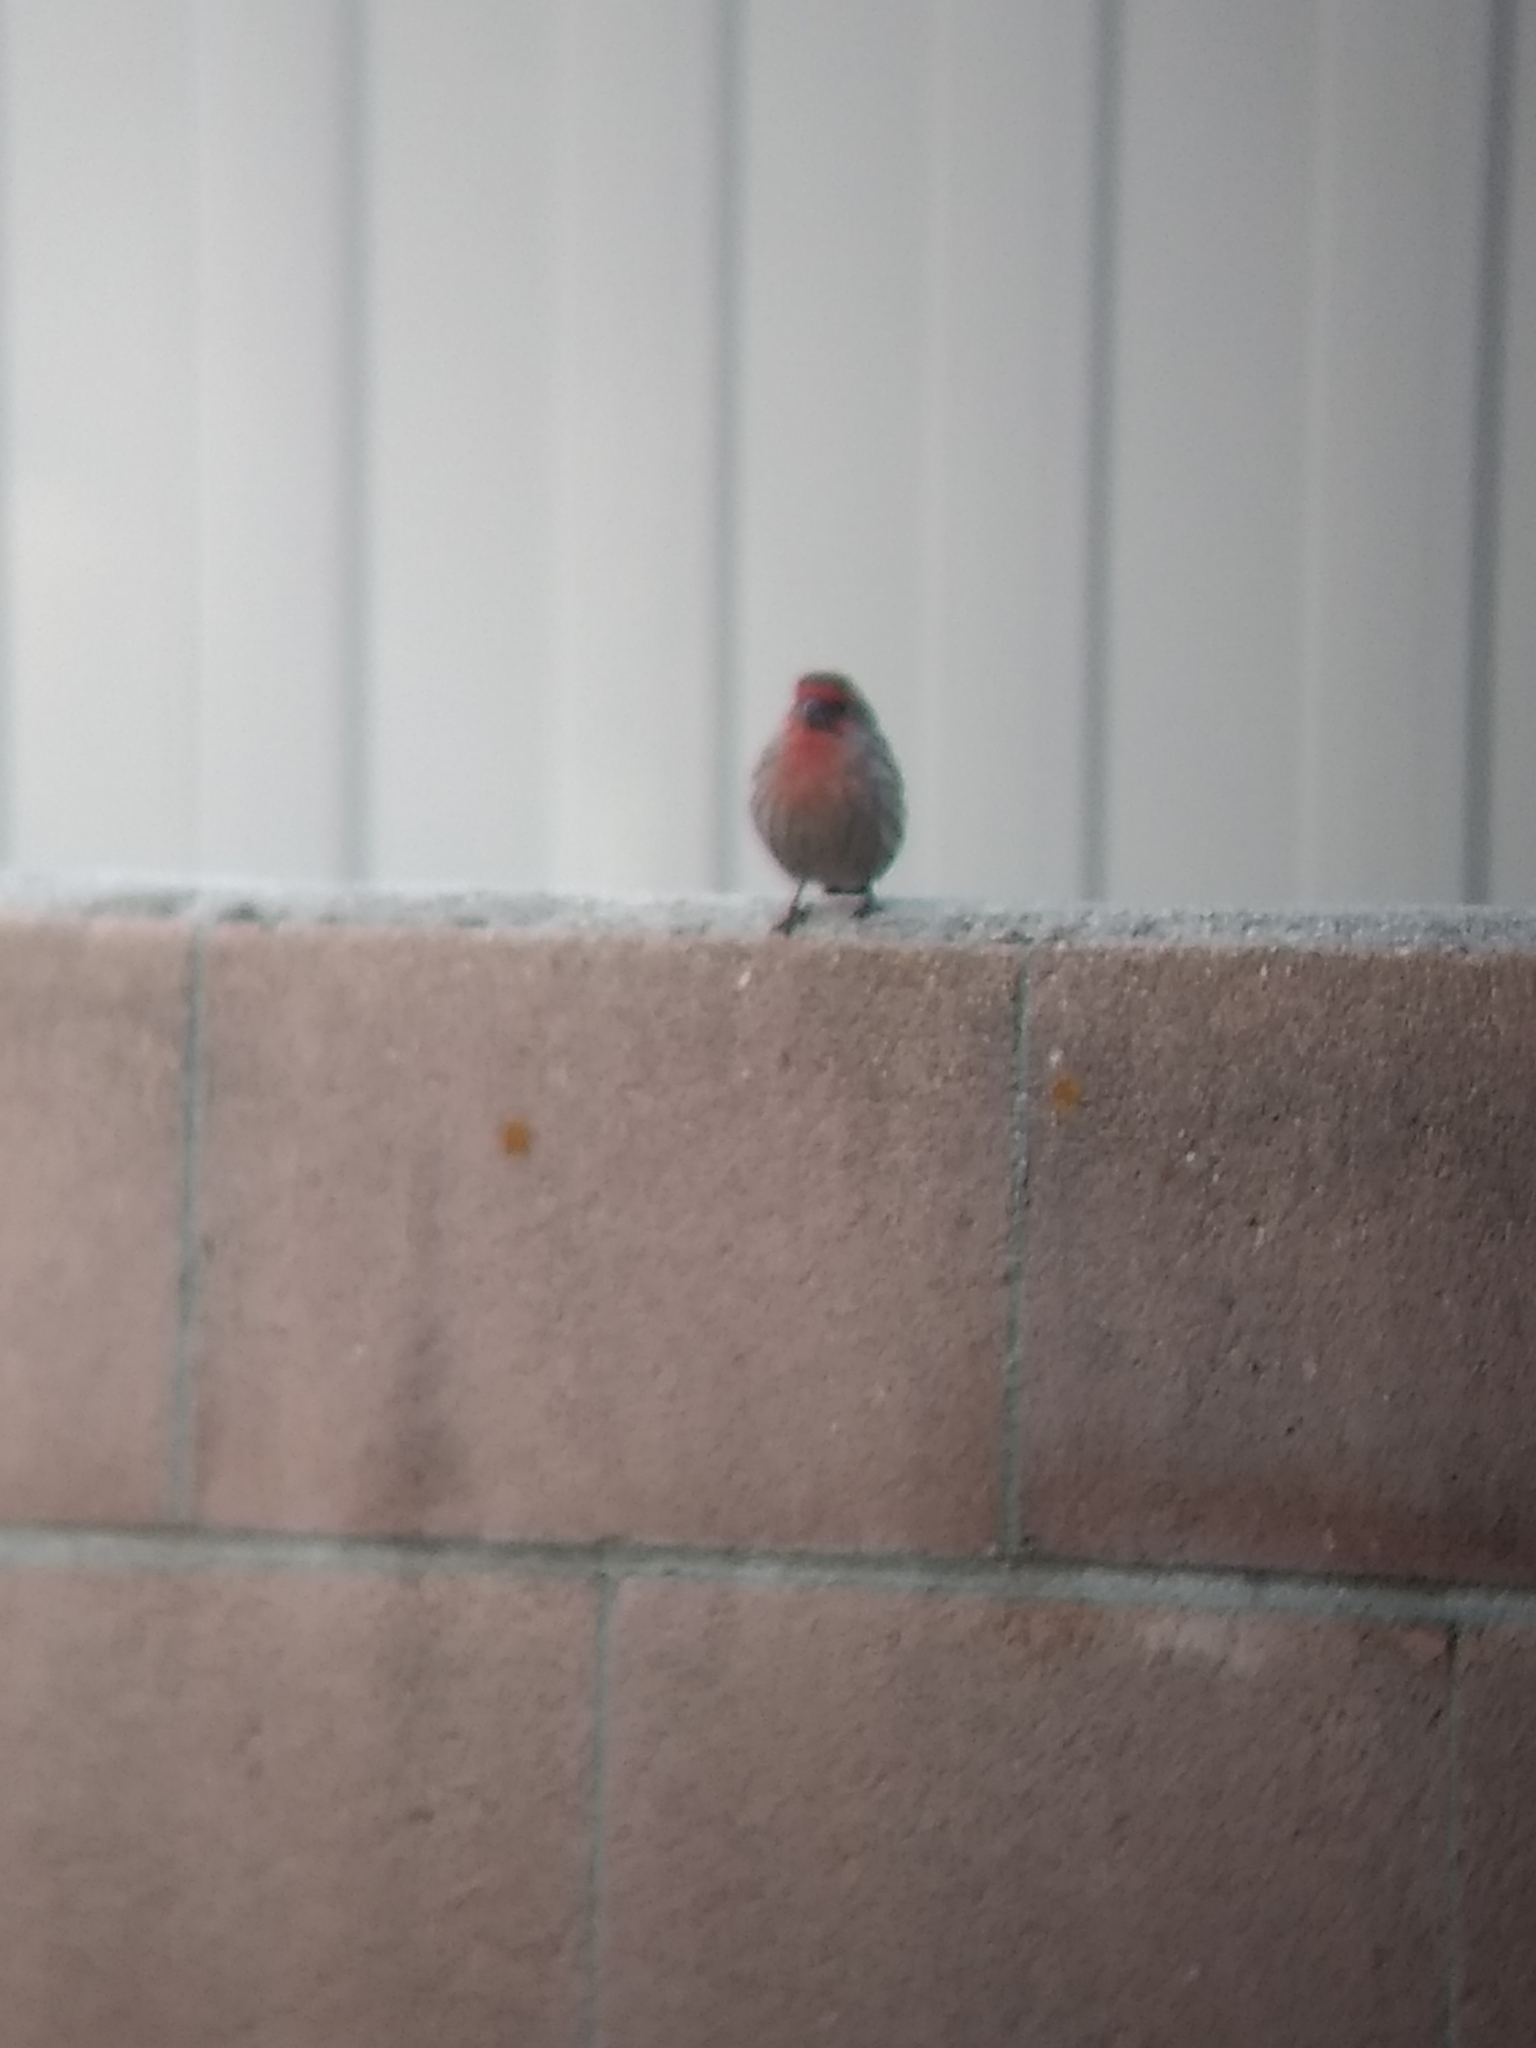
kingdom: Animalia
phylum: Chordata
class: Aves
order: Passeriformes
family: Fringillidae
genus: Haemorhous
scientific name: Haemorhous mexicanus
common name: House finch
